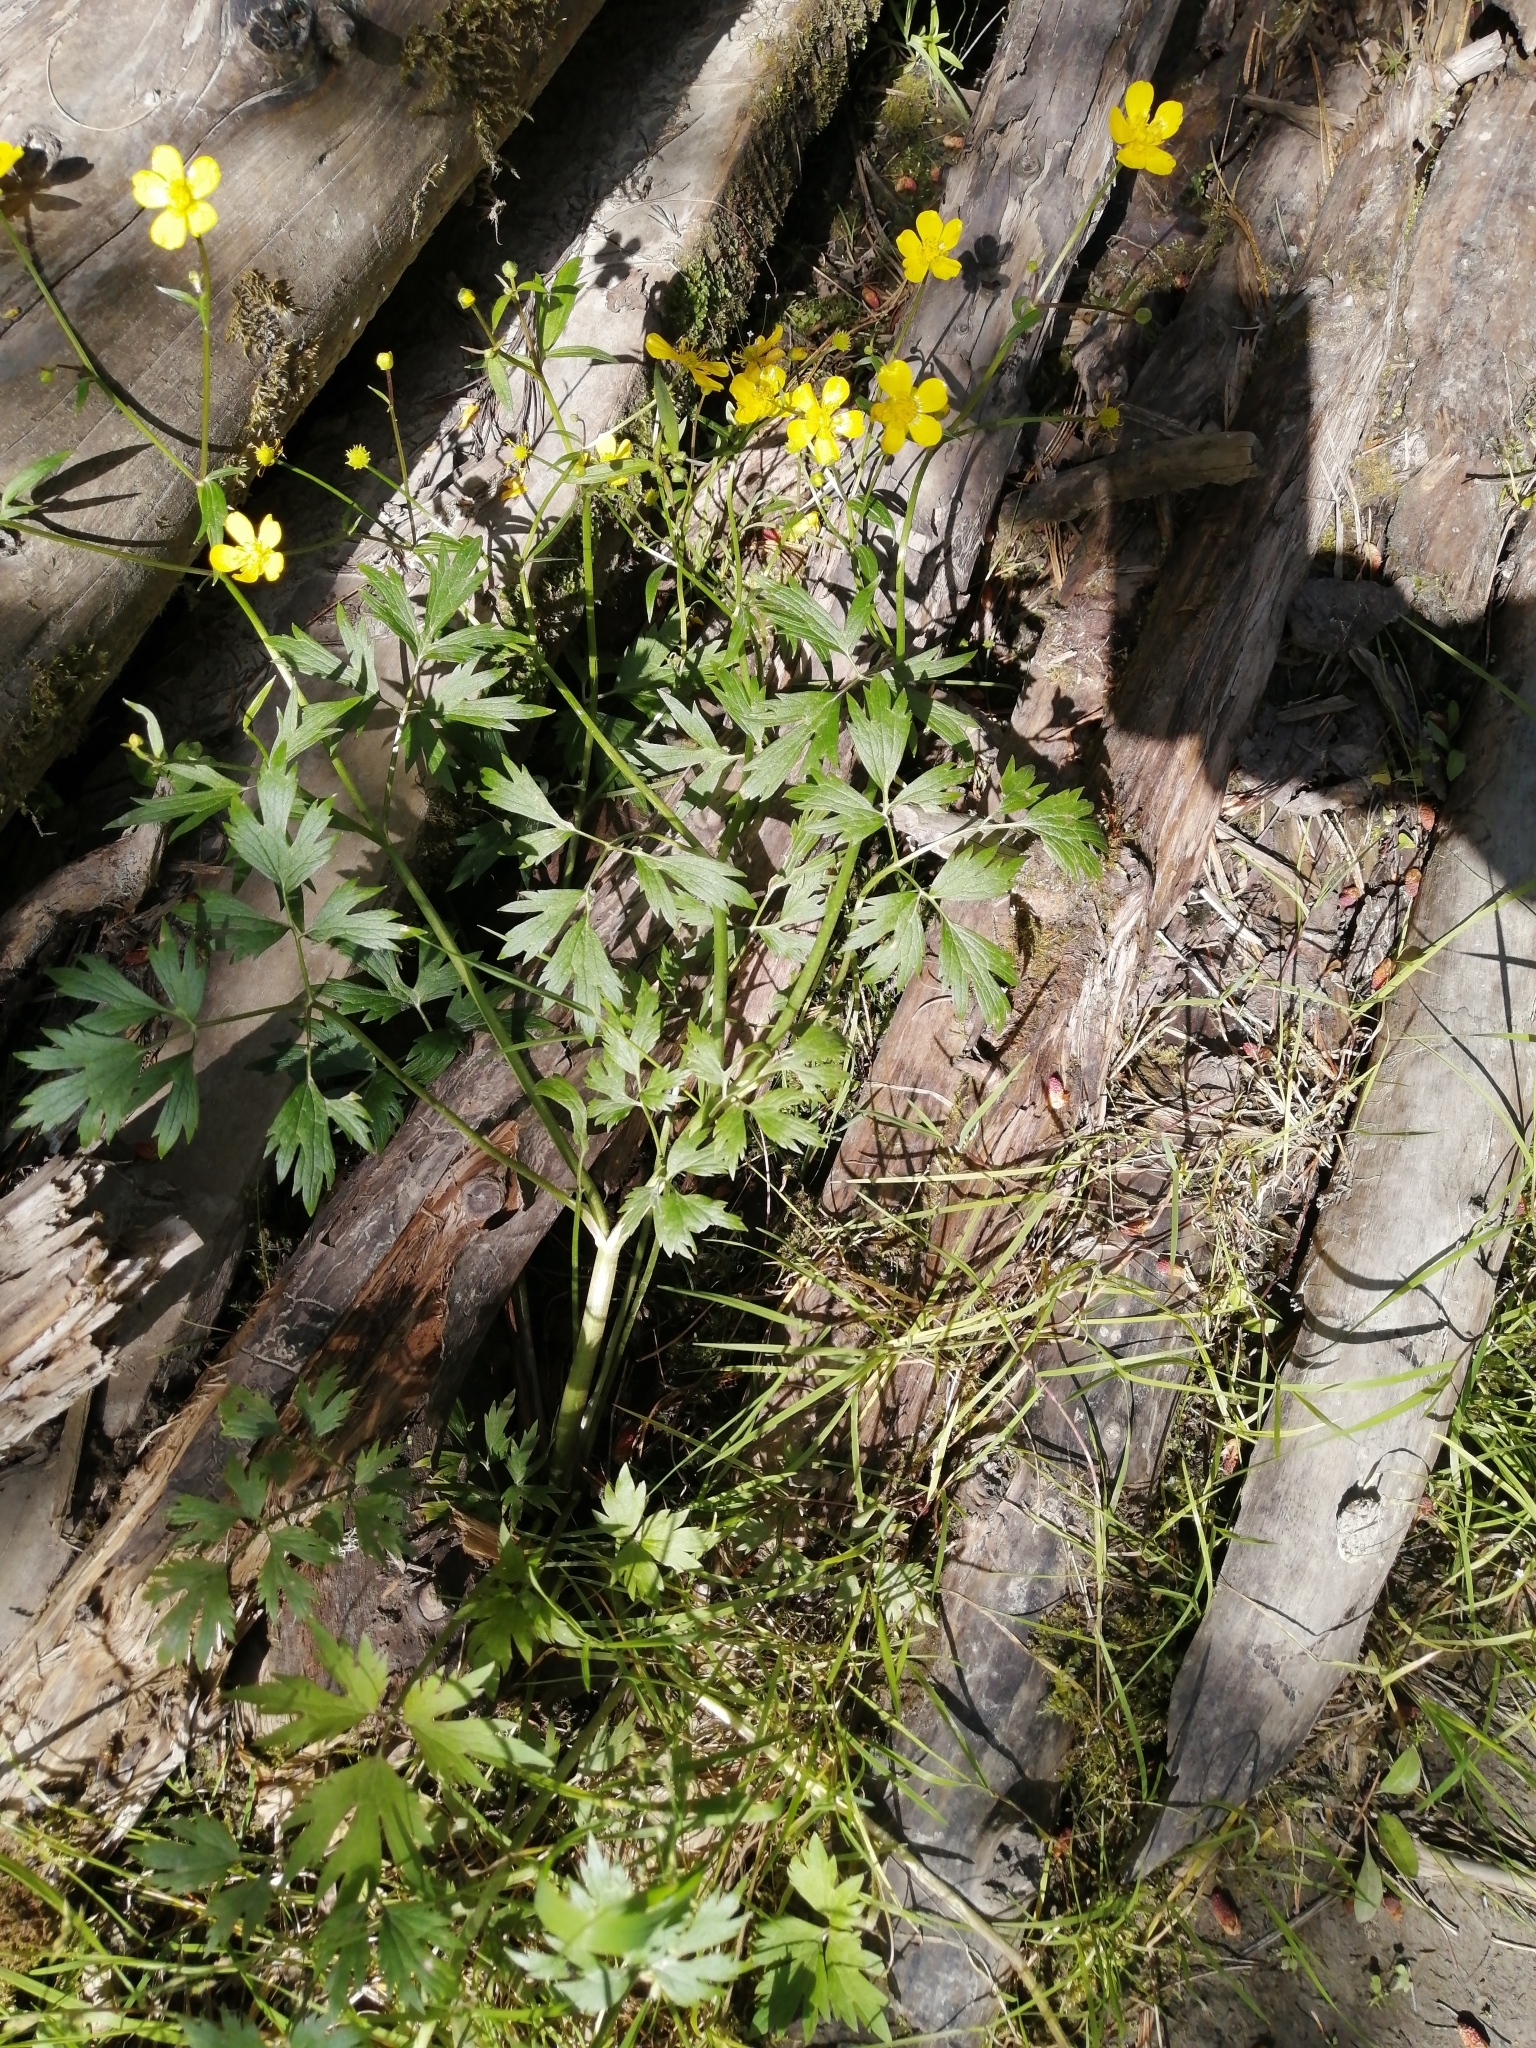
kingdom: Plantae
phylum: Tracheophyta
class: Magnoliopsida
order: Ranunculales
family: Ranunculaceae
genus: Ranunculus
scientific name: Ranunculus repens
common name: Creeping buttercup
